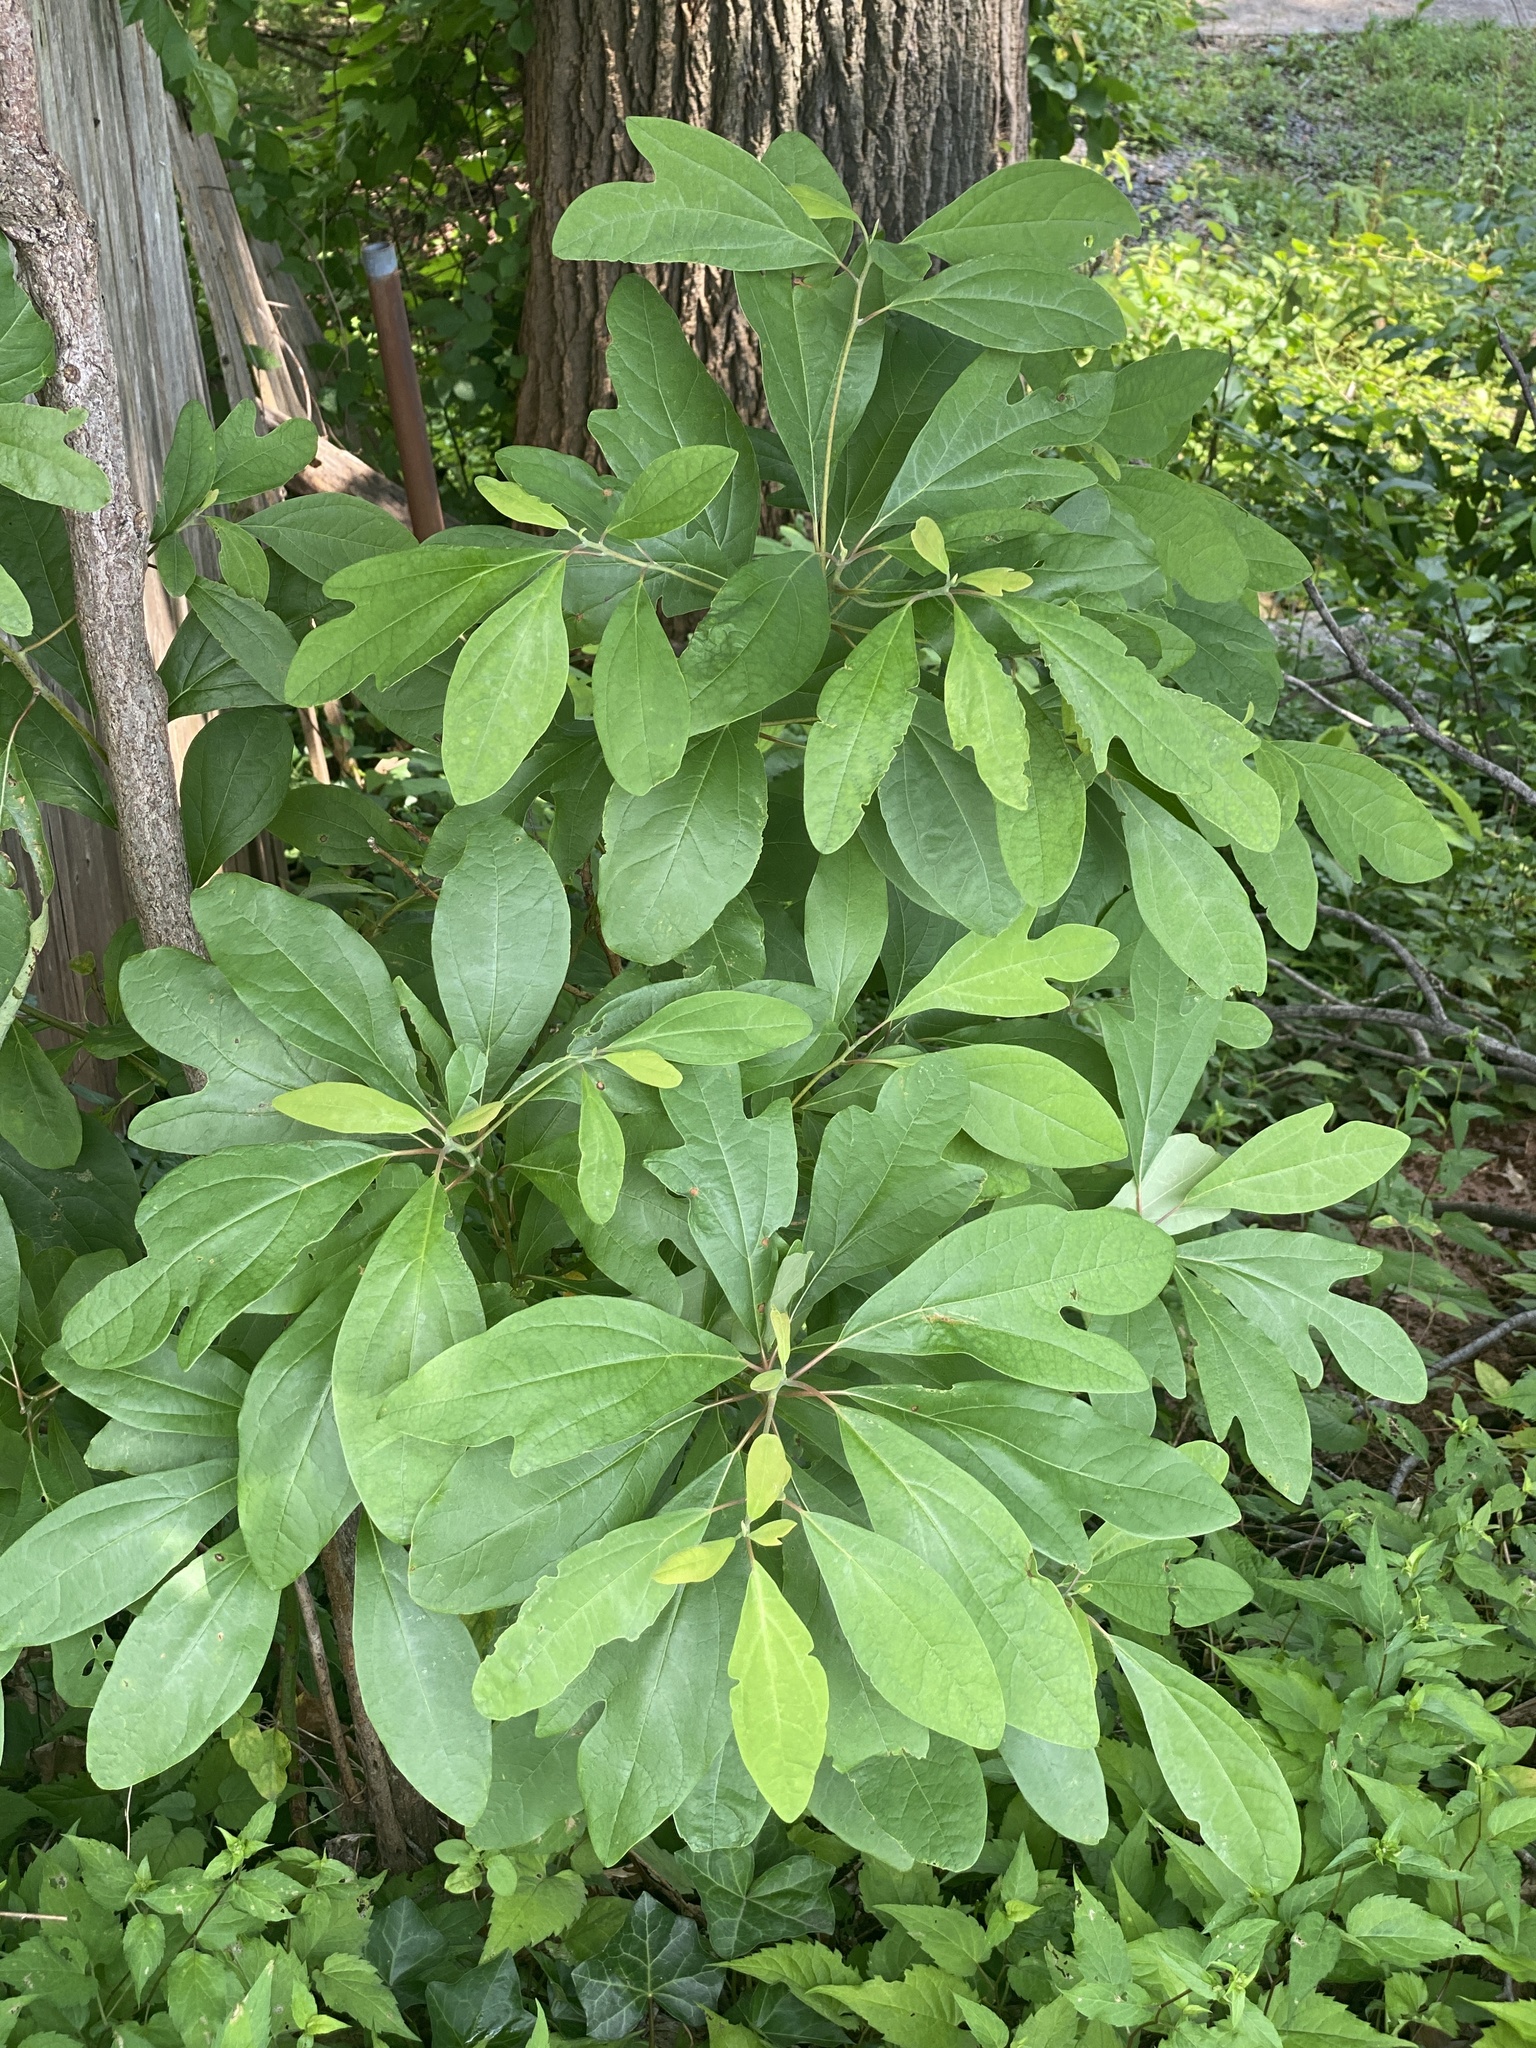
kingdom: Plantae
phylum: Tracheophyta
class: Magnoliopsida
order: Laurales
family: Lauraceae
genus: Sassafras
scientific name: Sassafras albidum
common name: Sassafras
